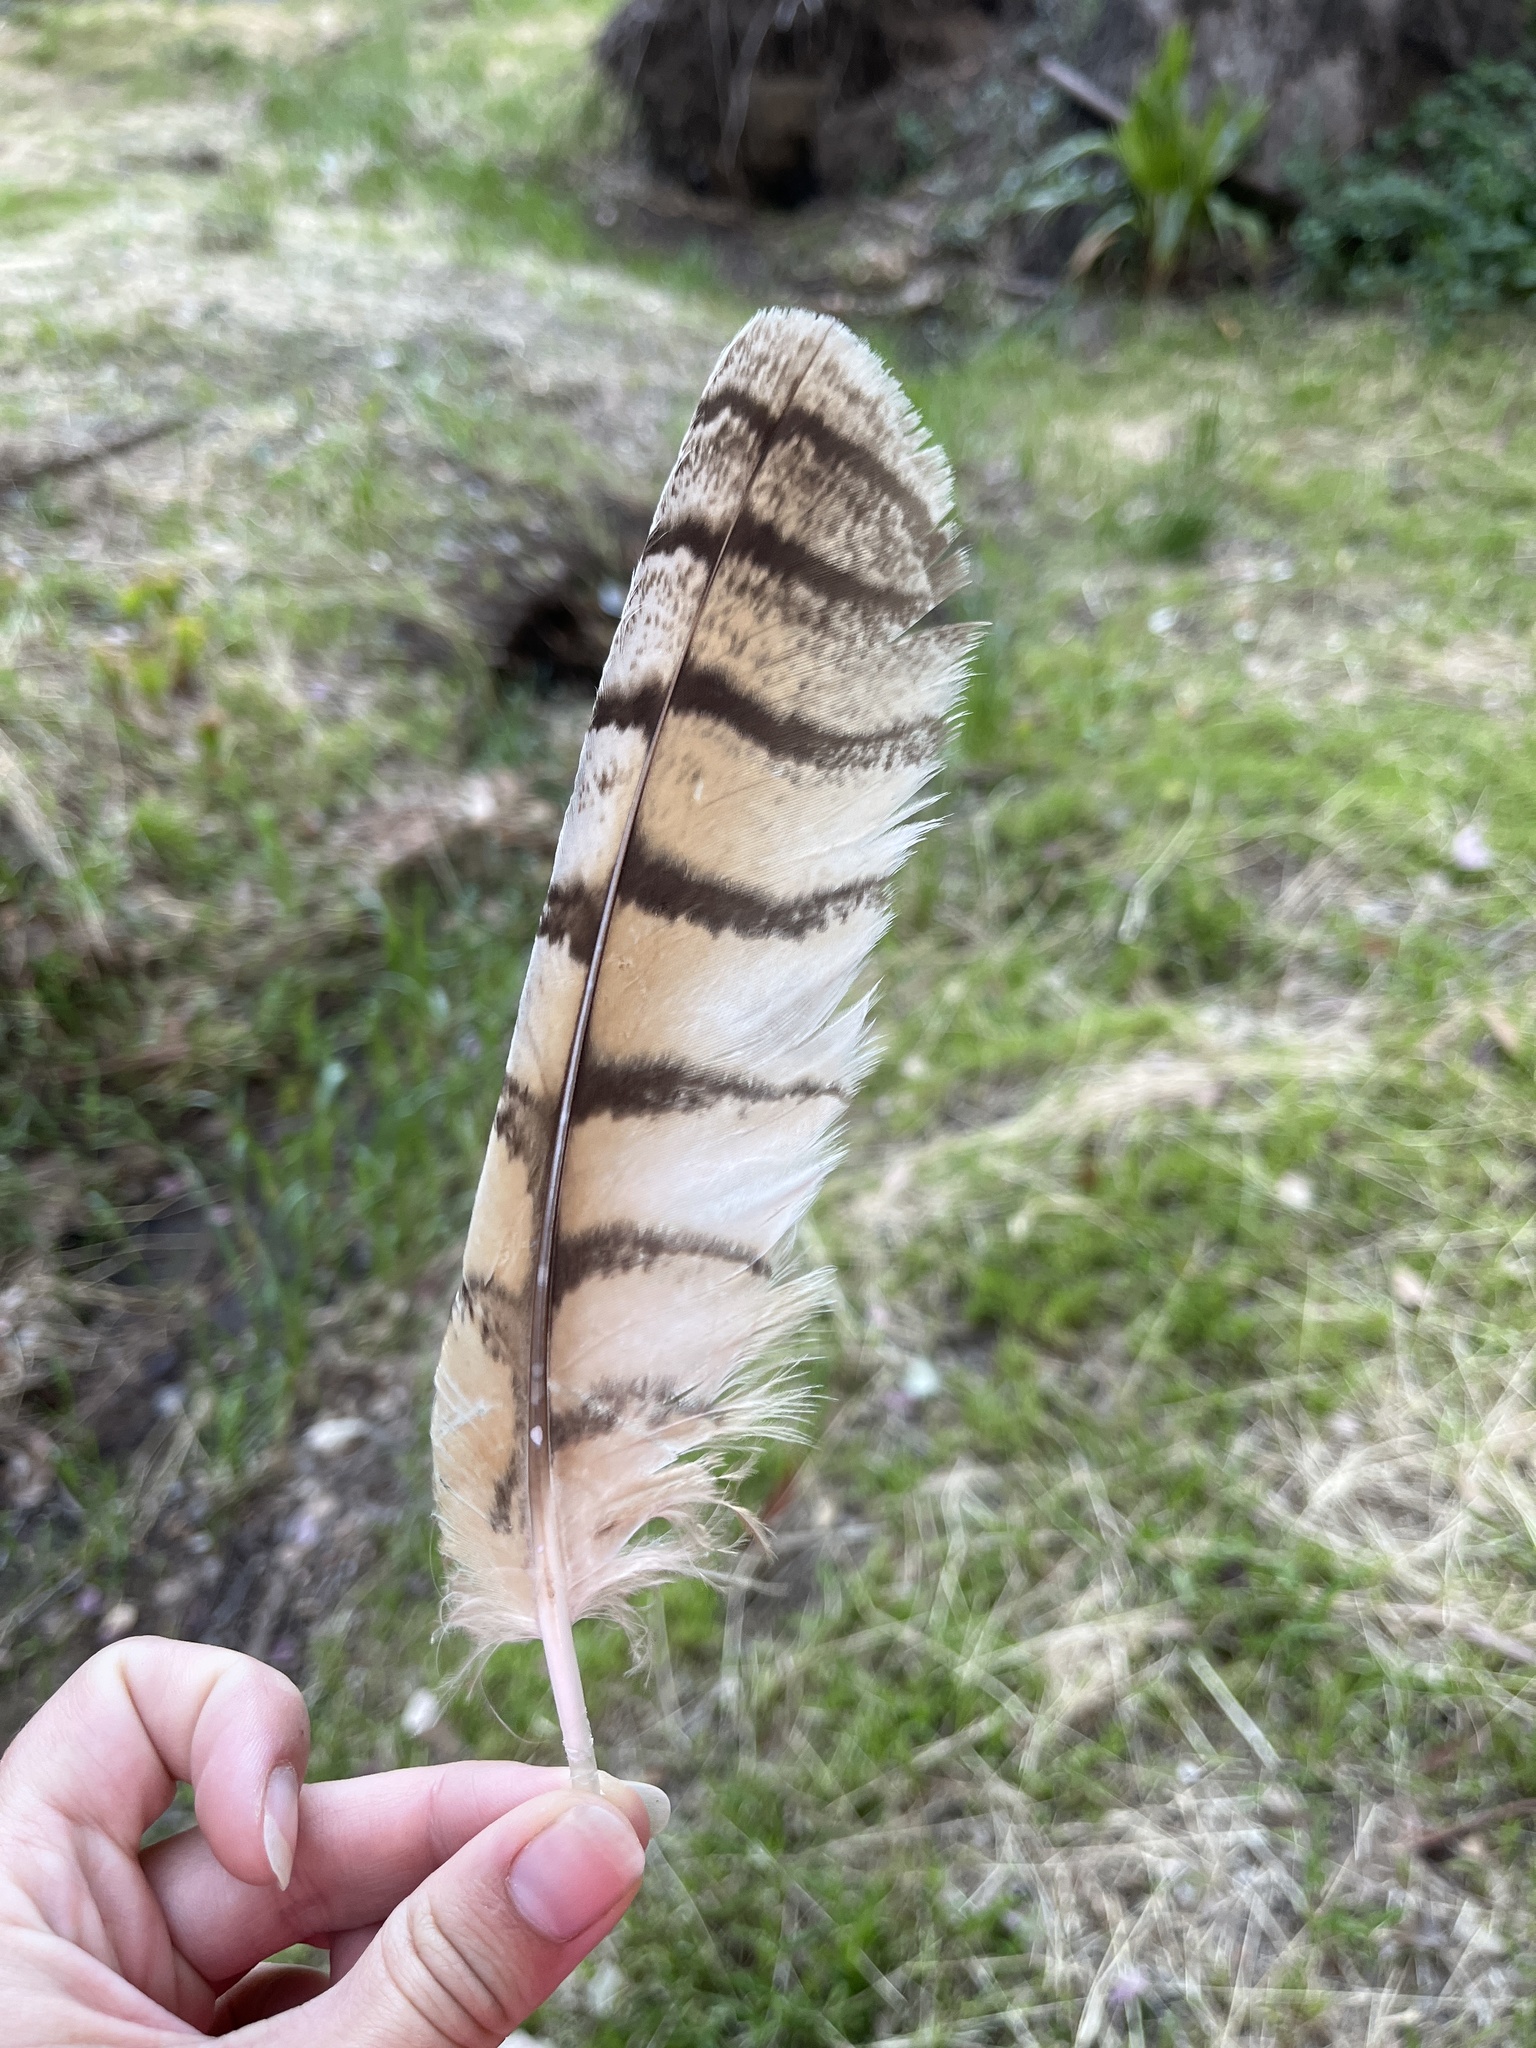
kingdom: Animalia
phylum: Chordata
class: Aves
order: Strigiformes
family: Strigidae
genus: Bubo
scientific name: Bubo virginianus
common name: Great horned owl
